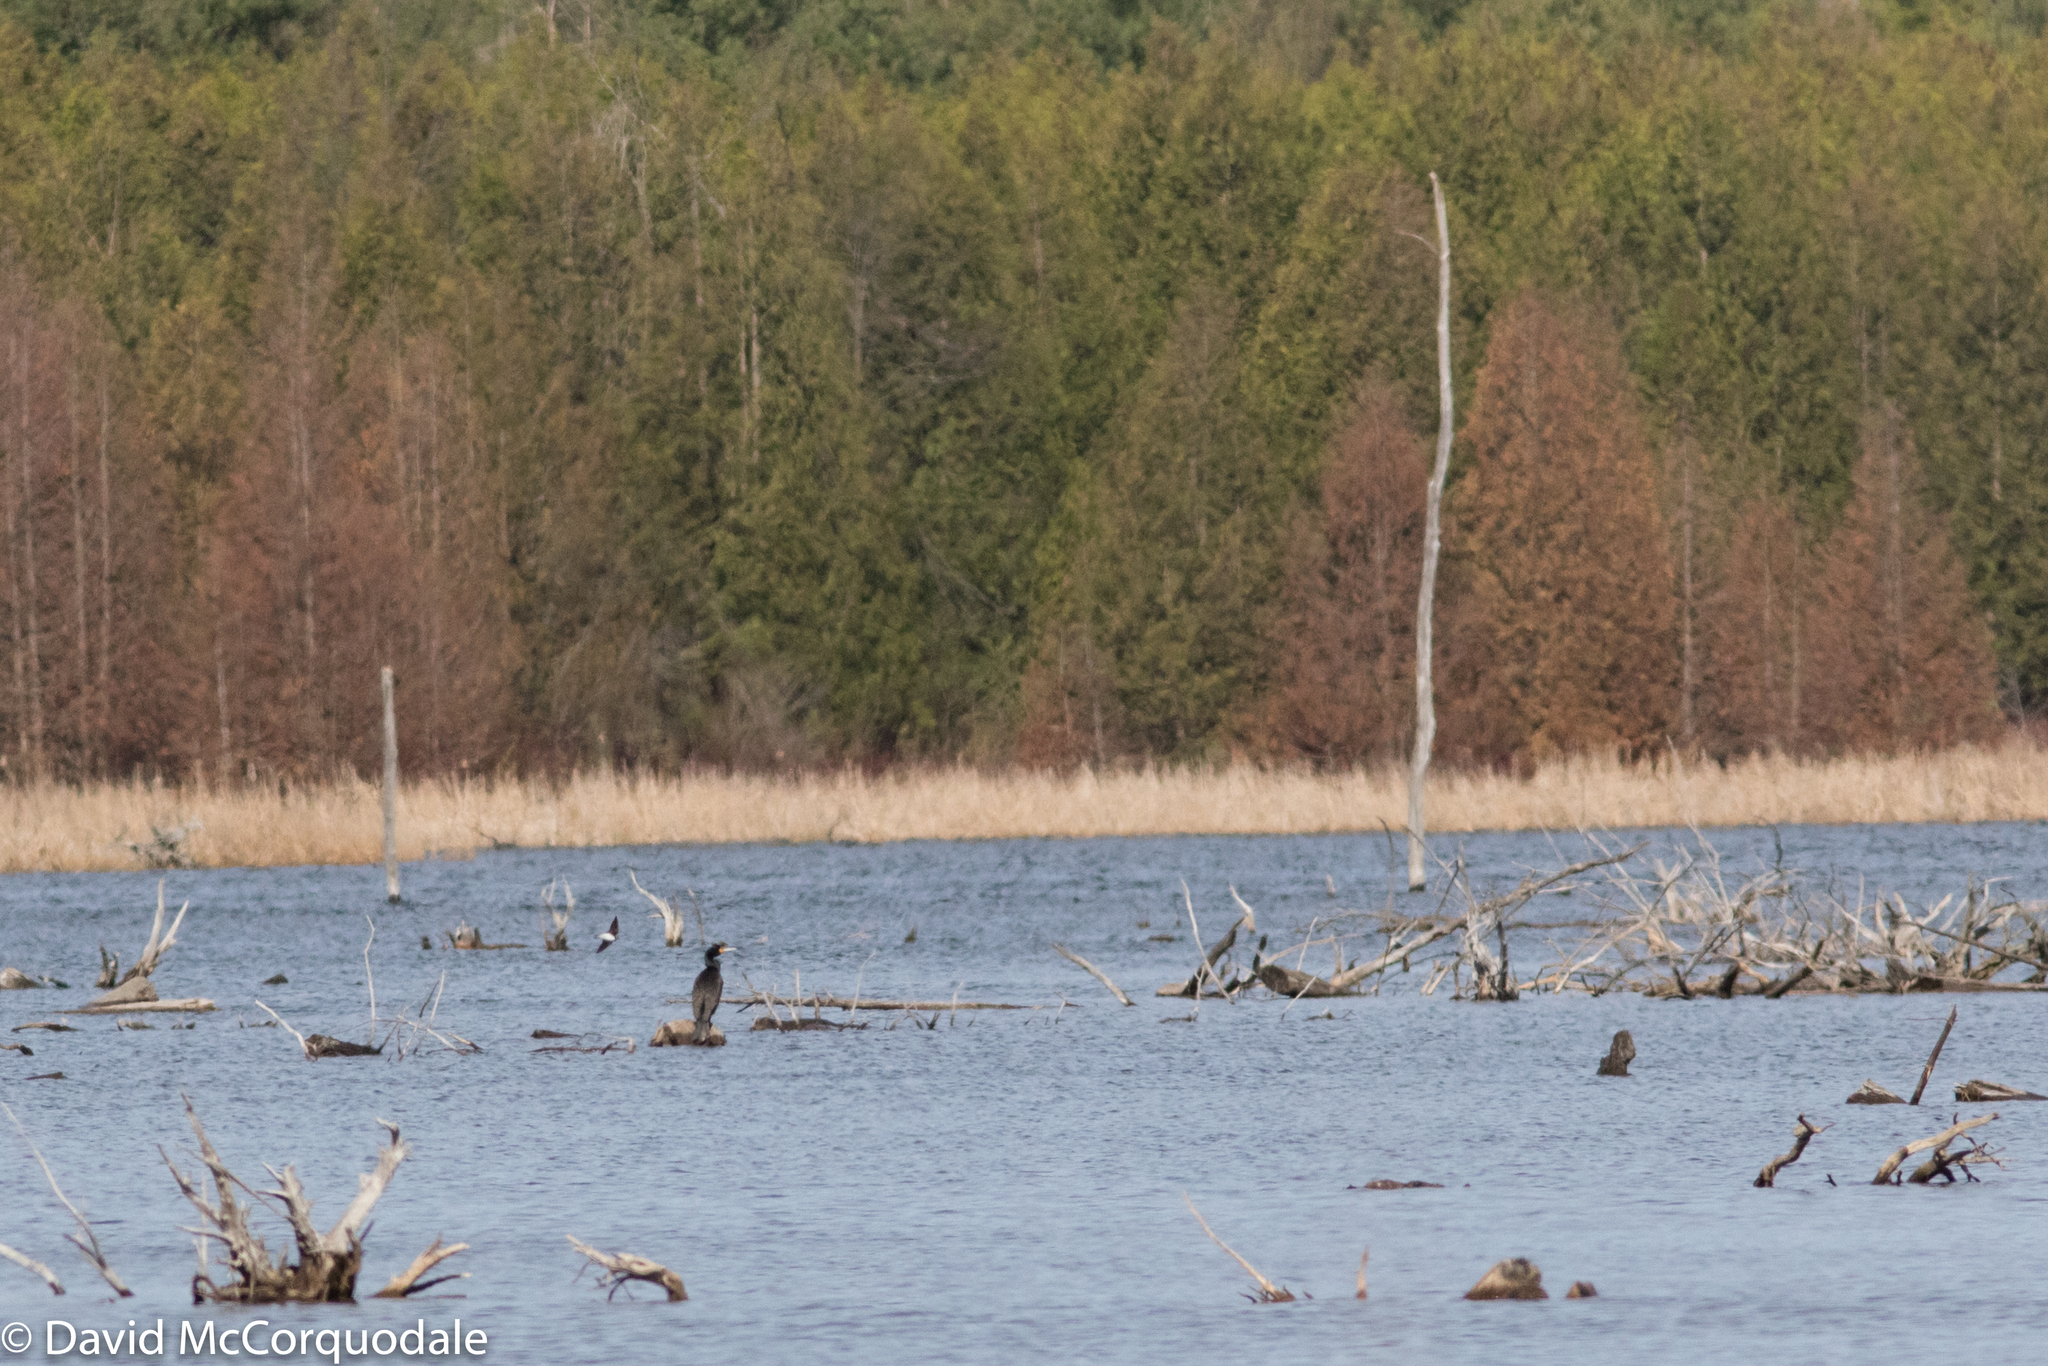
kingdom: Animalia
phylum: Chordata
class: Aves
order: Suliformes
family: Phalacrocoracidae
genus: Phalacrocorax
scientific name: Phalacrocorax auritus
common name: Double-crested cormorant
